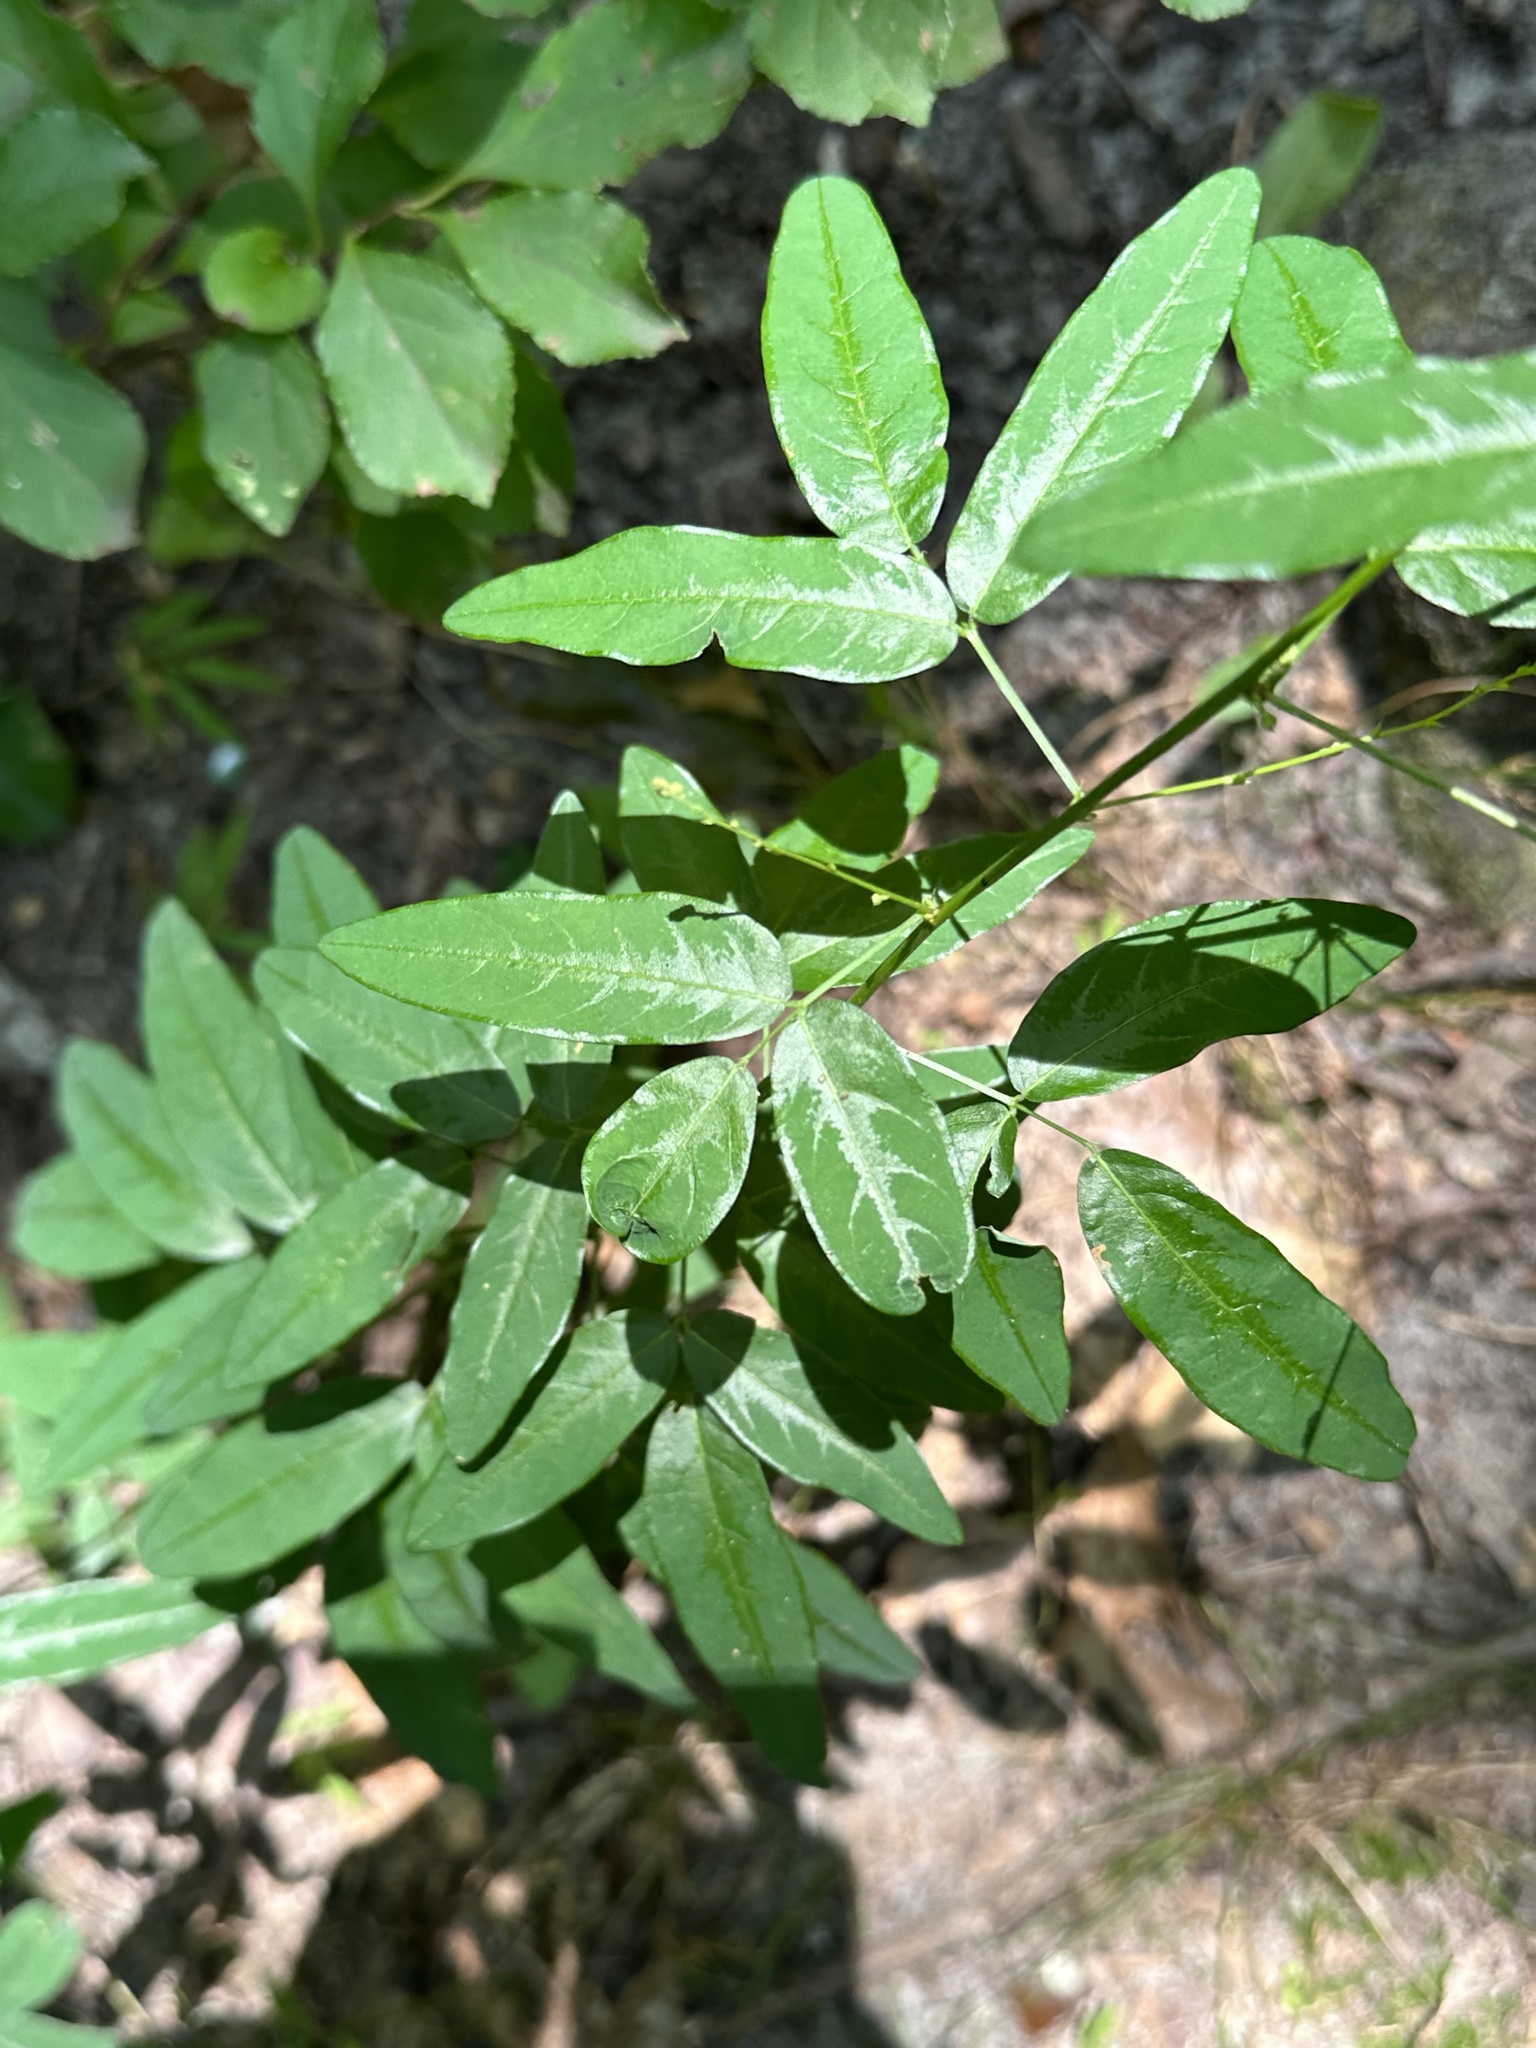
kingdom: Plantae
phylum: Tracheophyta
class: Magnoliopsida
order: Fabales
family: Fabaceae
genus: Desmodium
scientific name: Desmodium paniculatum
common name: Panicled tick-clover
